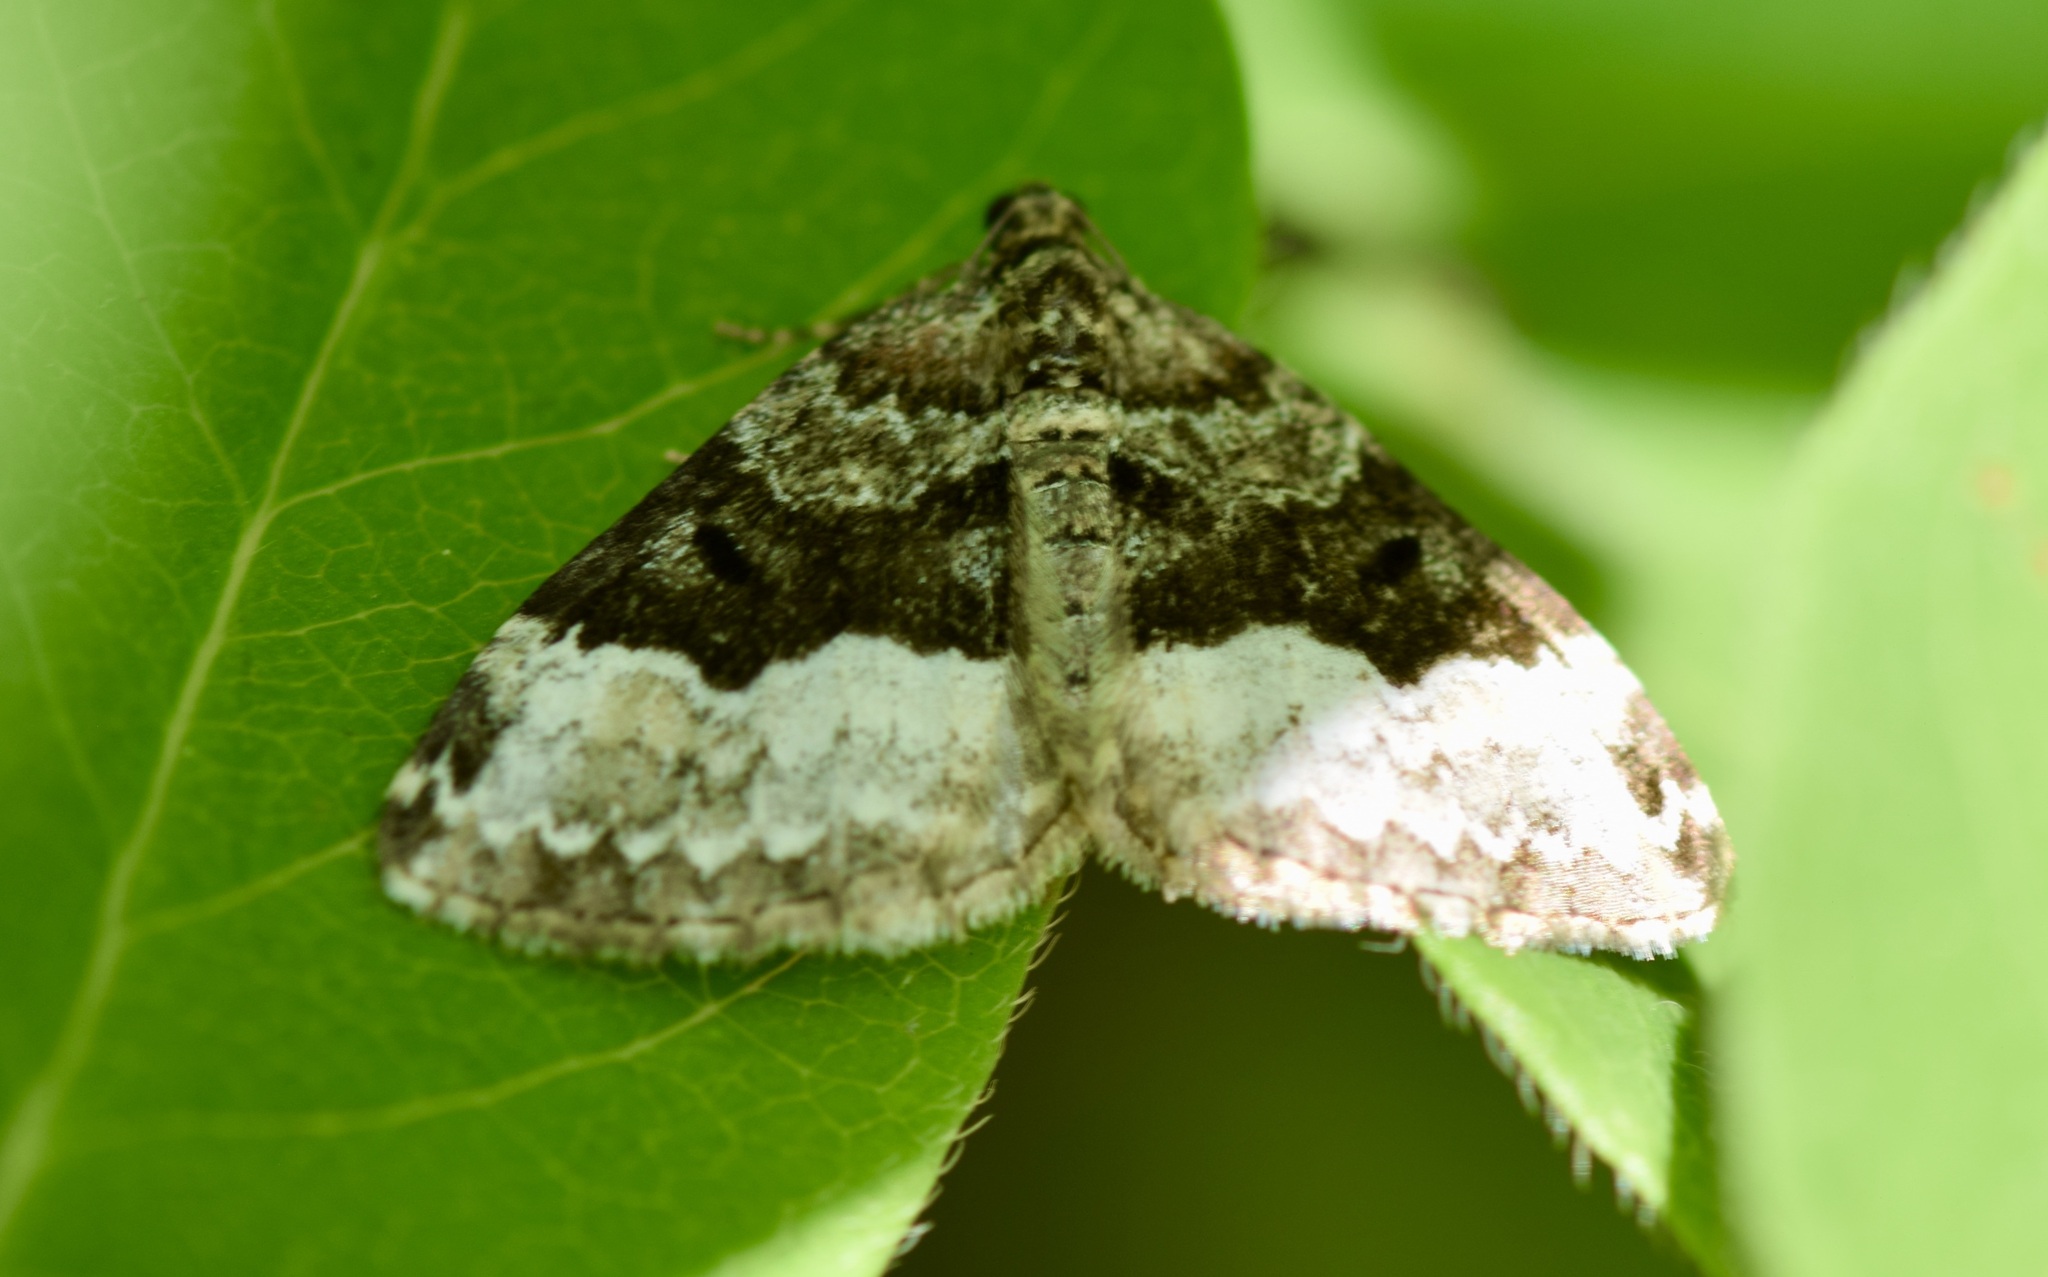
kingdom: Animalia
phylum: Arthropoda
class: Insecta
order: Lepidoptera
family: Geometridae
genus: Euphyia
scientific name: Euphyia intermediata
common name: Sharp-angled carpet
